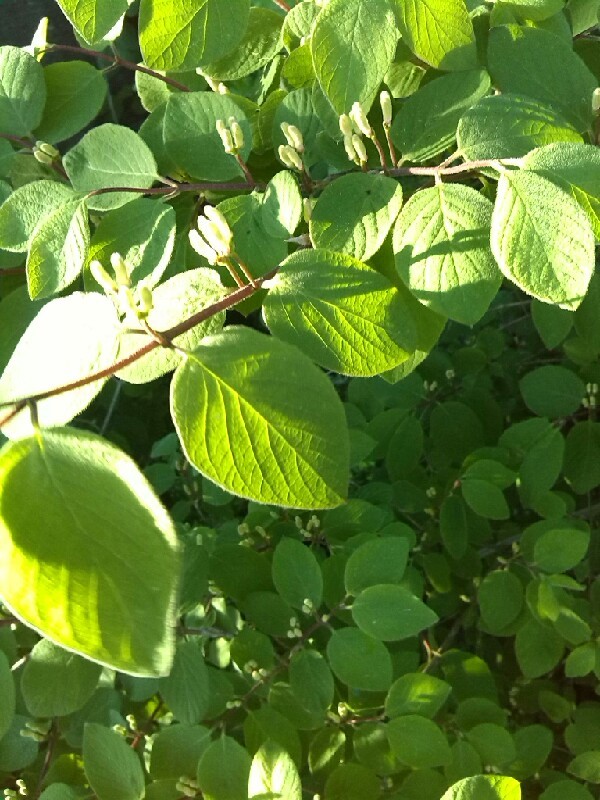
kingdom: Plantae
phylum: Tracheophyta
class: Magnoliopsida
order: Dipsacales
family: Caprifoliaceae
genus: Lonicera
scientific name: Lonicera xylosteum
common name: Fly honeysuckle
